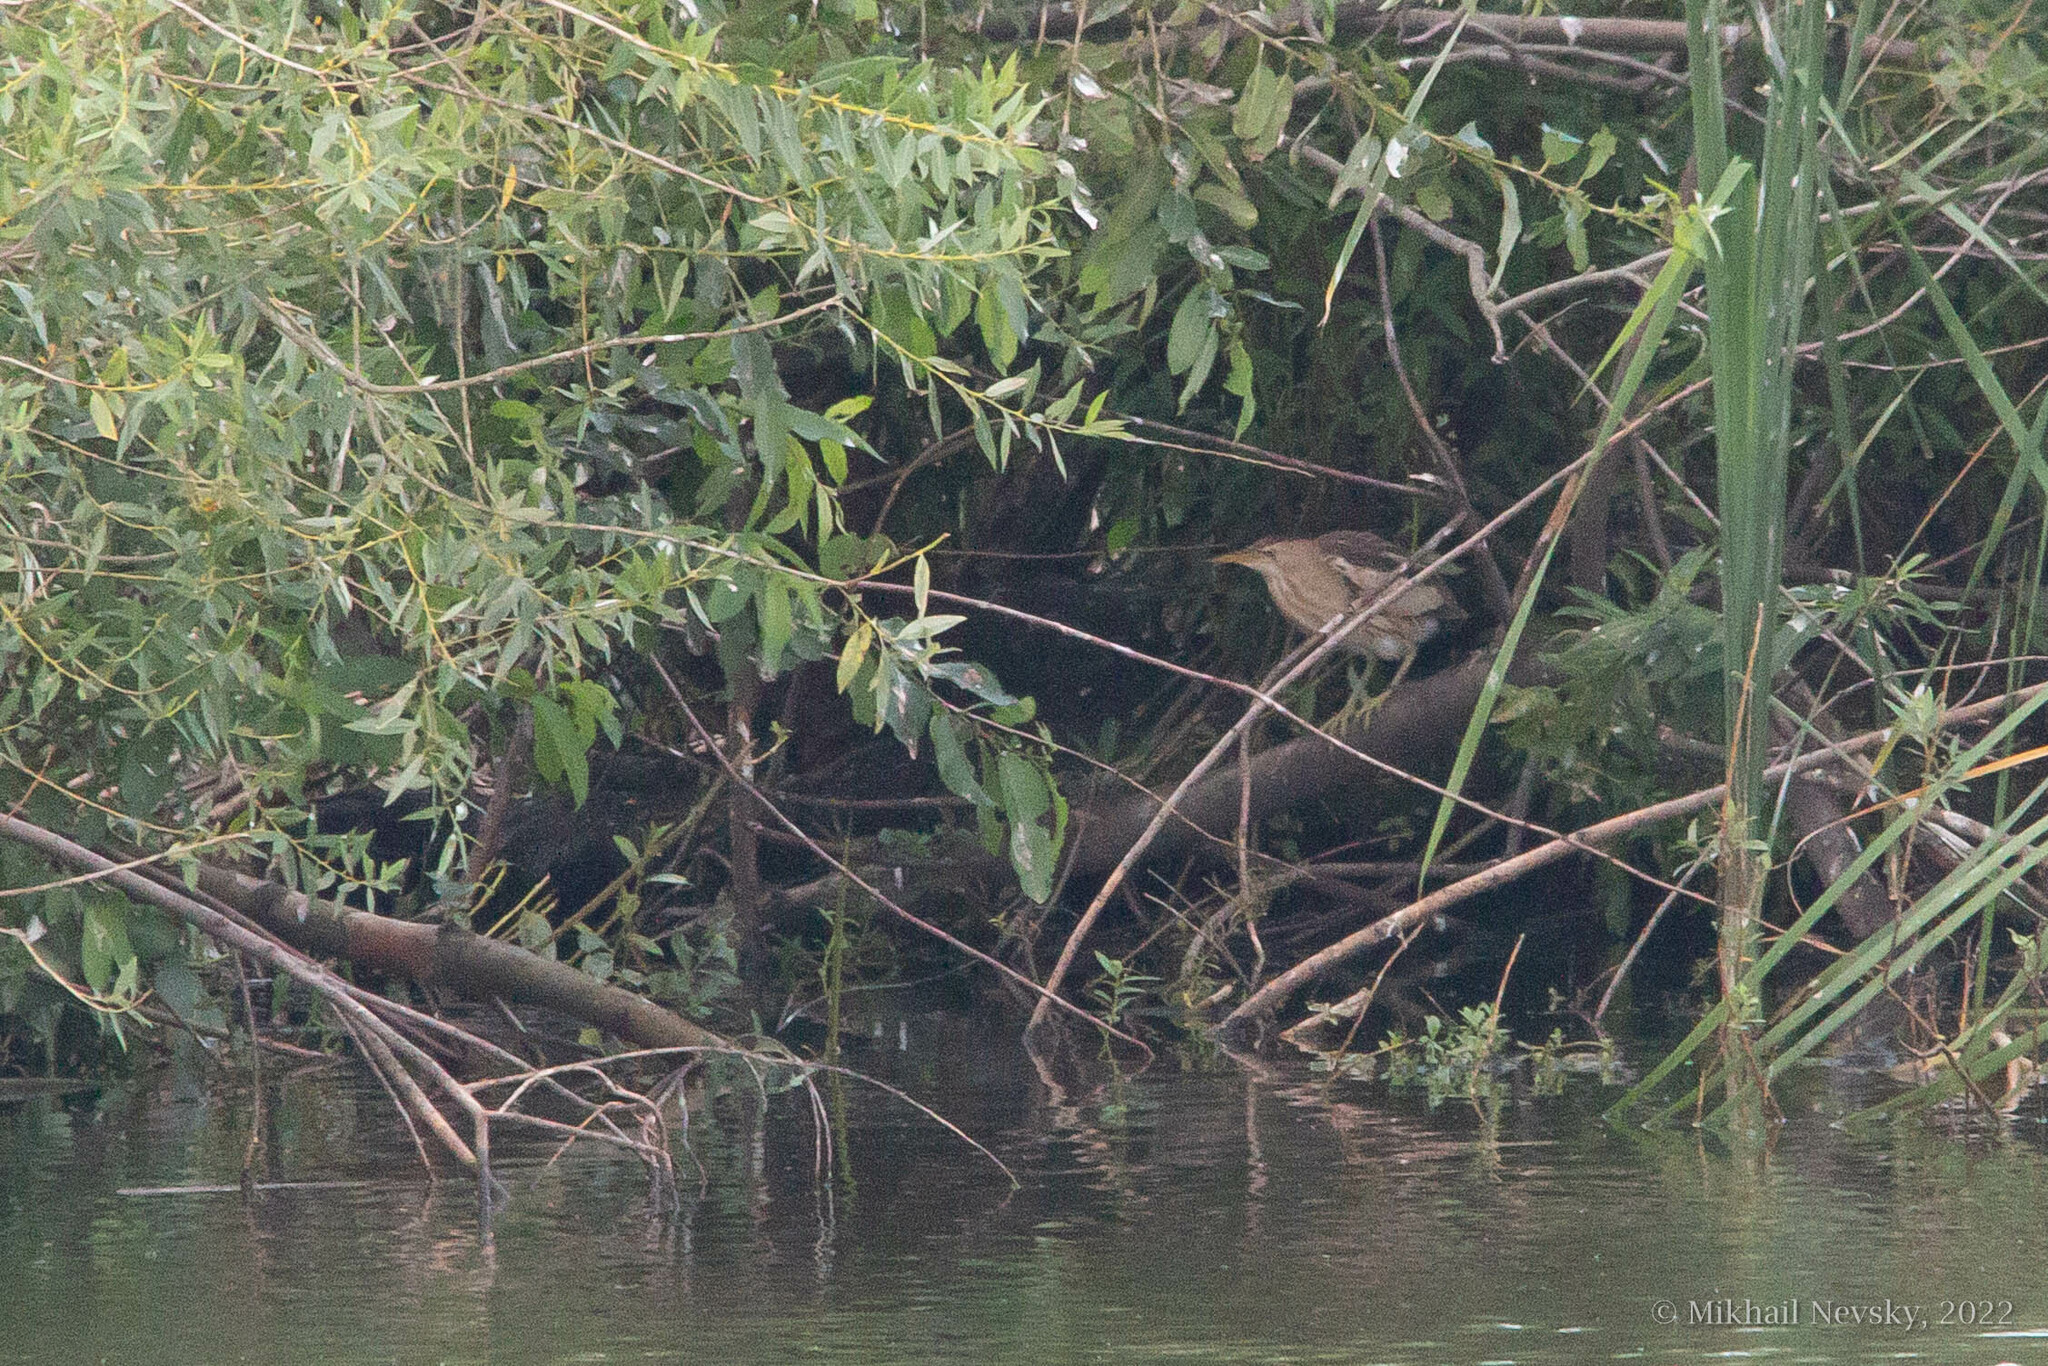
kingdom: Animalia
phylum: Chordata
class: Aves
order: Pelecaniformes
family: Ardeidae
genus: Ixobrychus
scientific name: Ixobrychus minutus
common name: Little bittern
